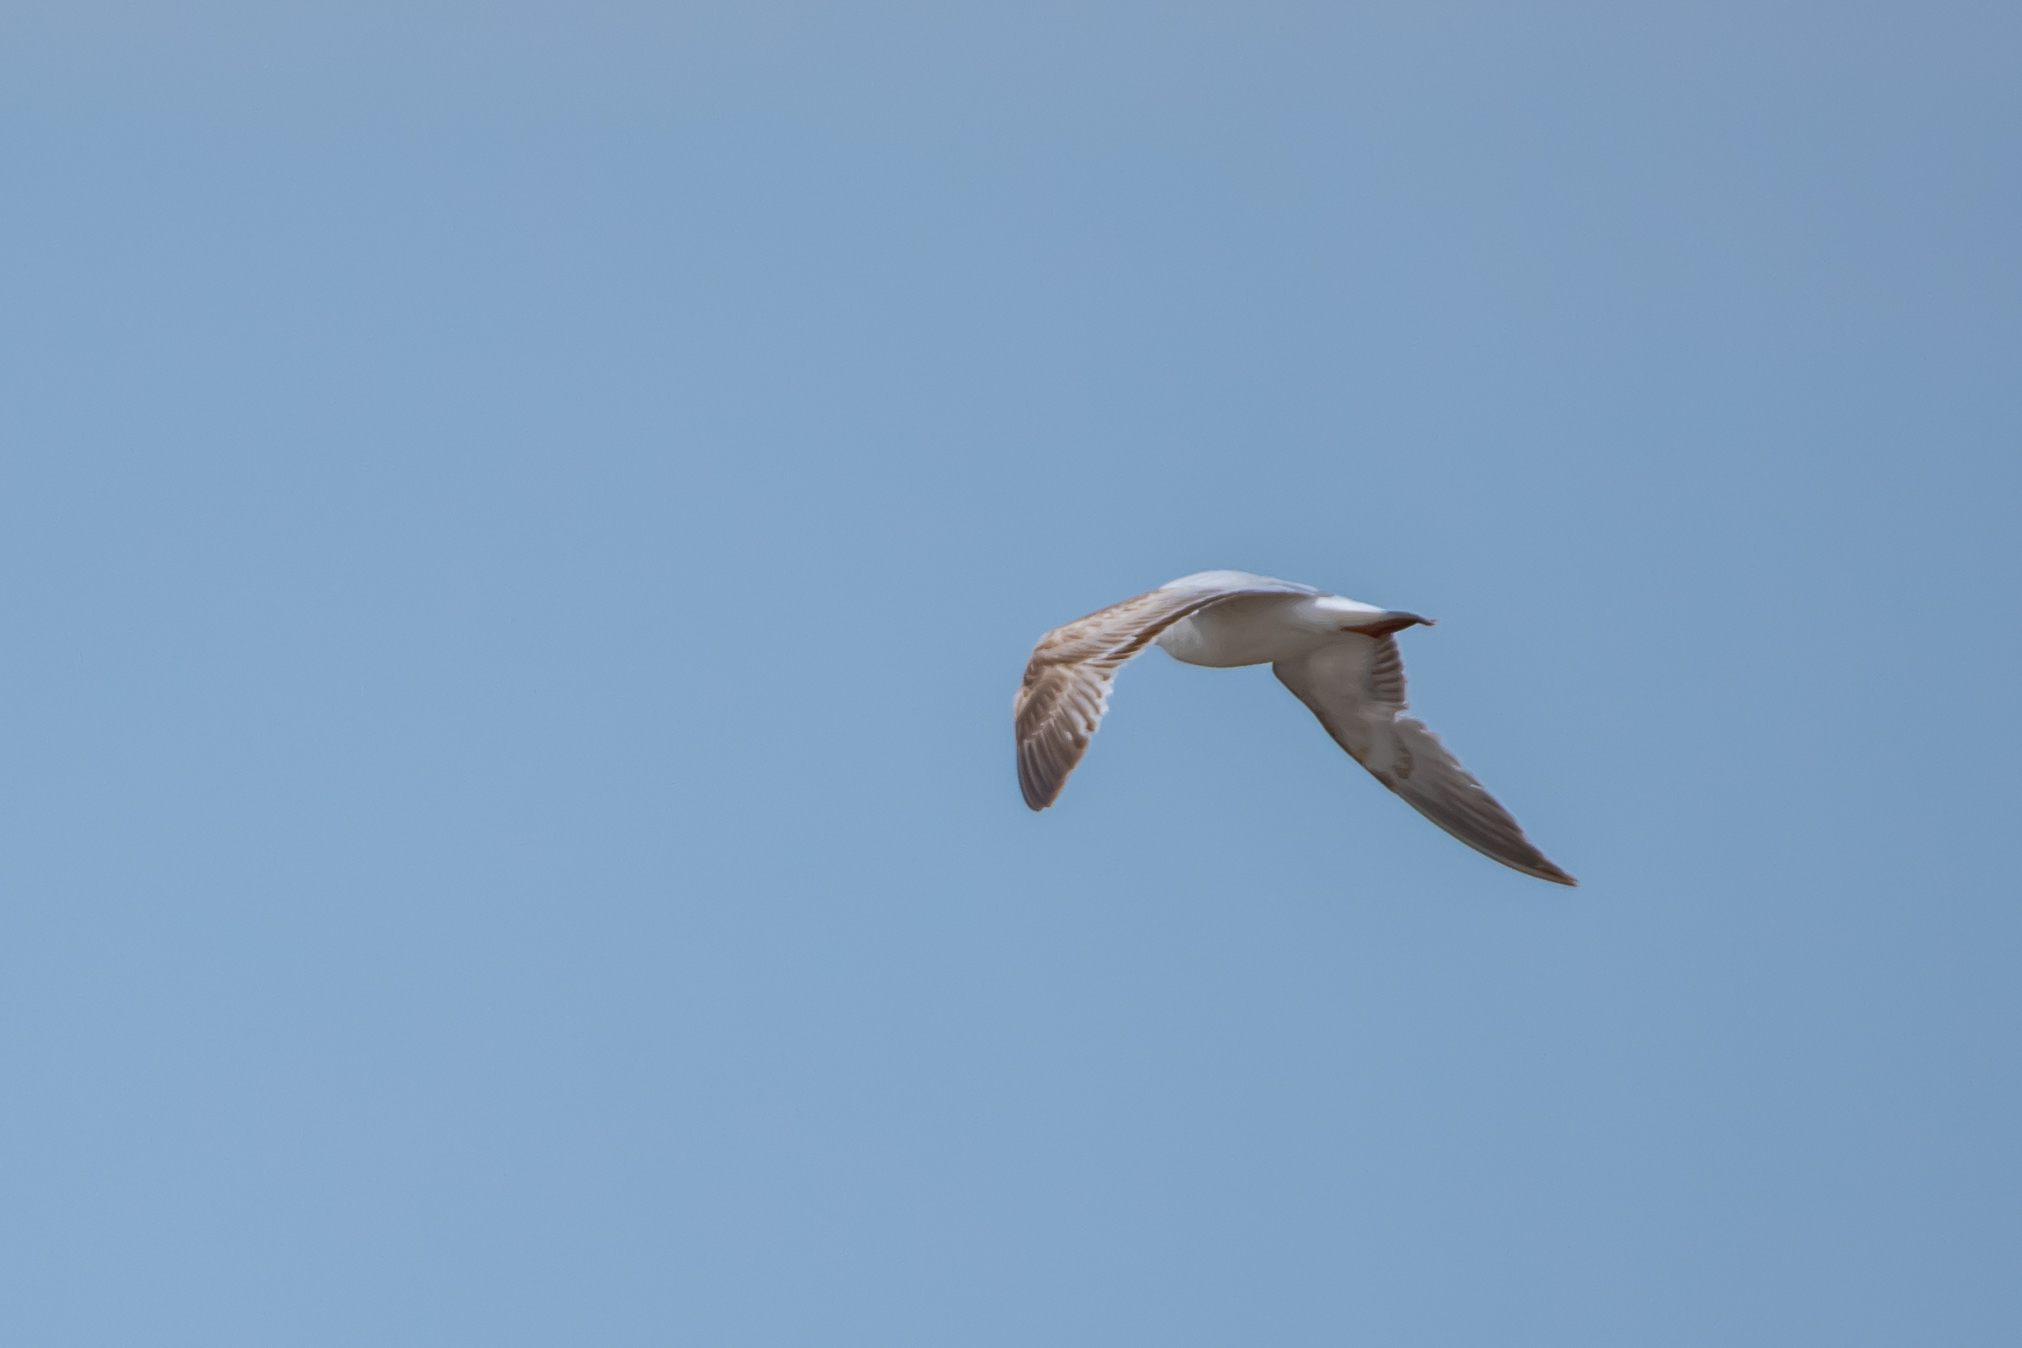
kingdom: Animalia
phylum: Chordata
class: Aves
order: Charadriiformes
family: Laridae
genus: Ichthyaetus
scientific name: Ichthyaetus melanocephalus
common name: Mediterranean gull
